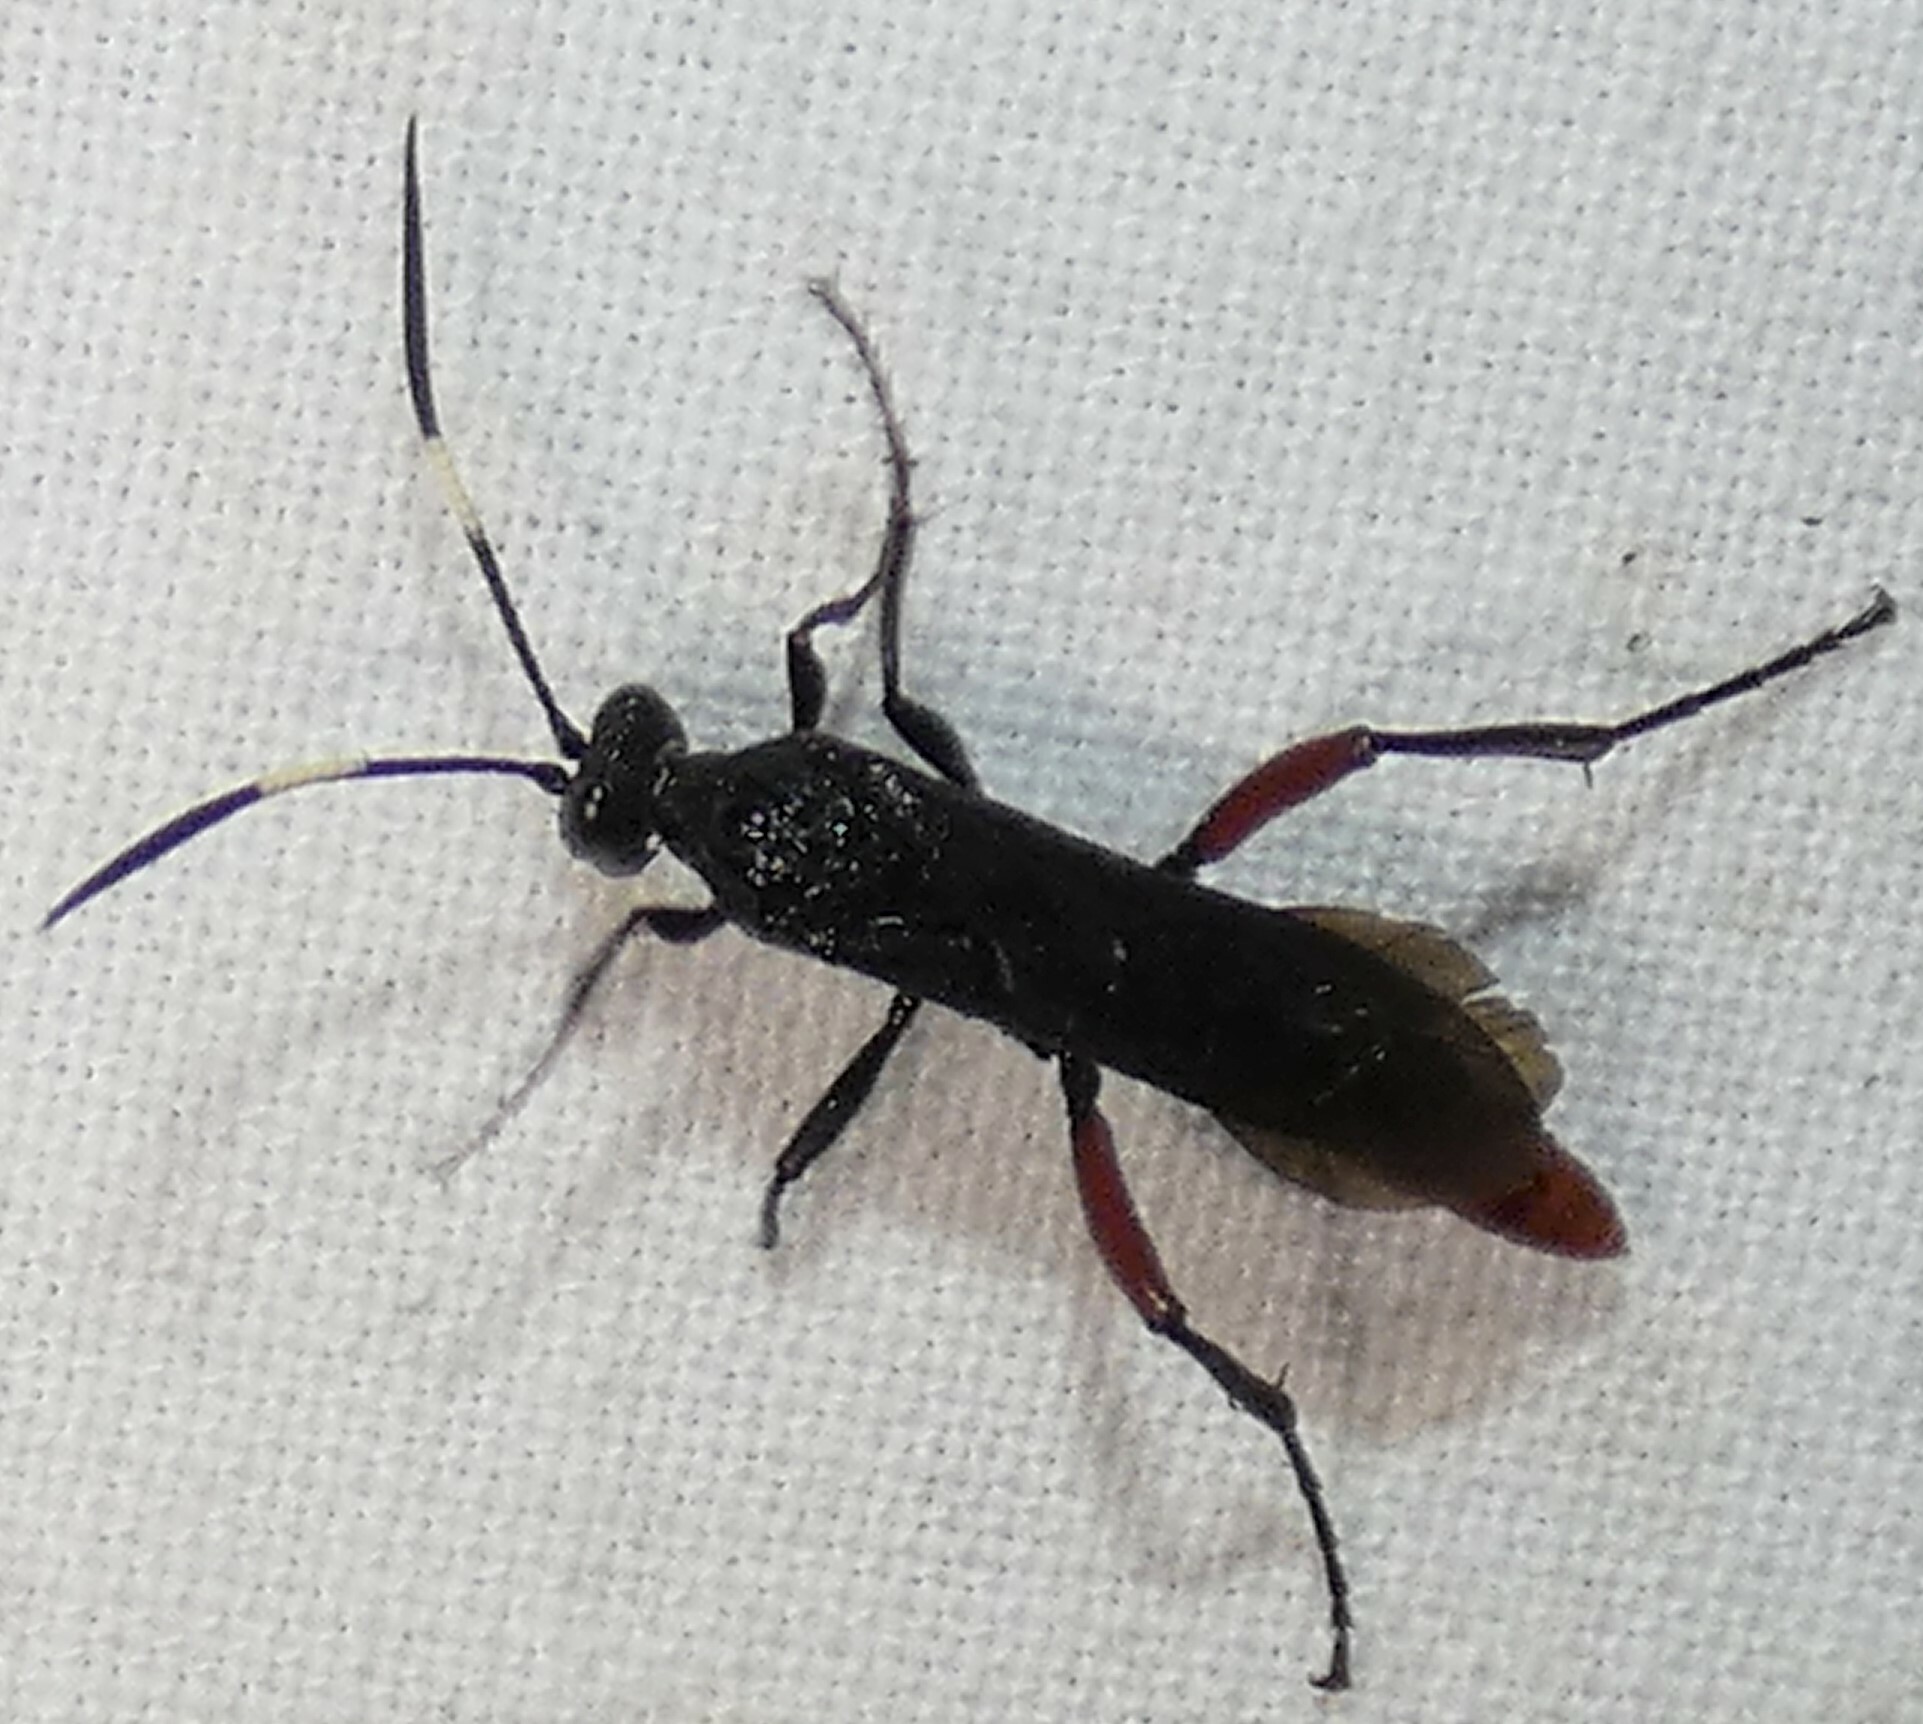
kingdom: Animalia
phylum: Arthropoda
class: Insecta
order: Hymenoptera
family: Ichneumonidae
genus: Limonethe
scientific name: Limonethe maurator
